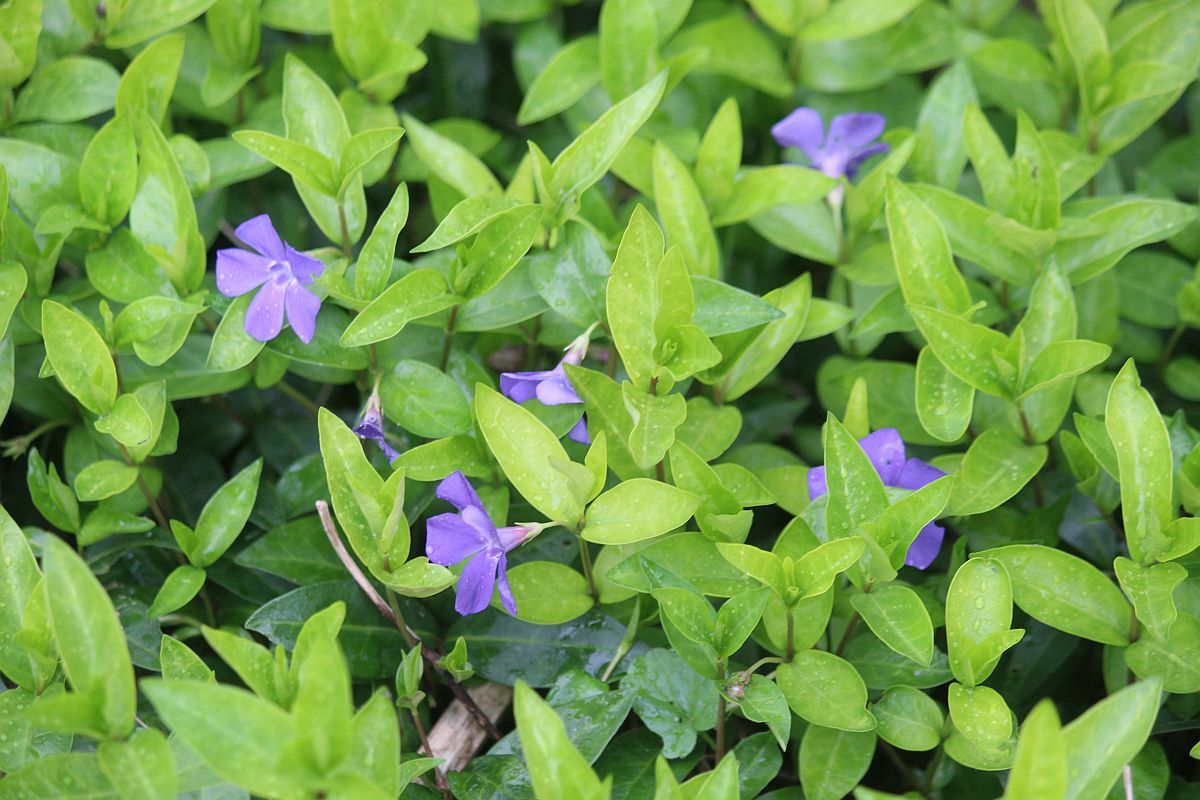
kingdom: Plantae
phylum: Tracheophyta
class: Magnoliopsida
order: Gentianales
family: Apocynaceae
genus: Vinca
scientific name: Vinca minor
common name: Lesser periwinkle
